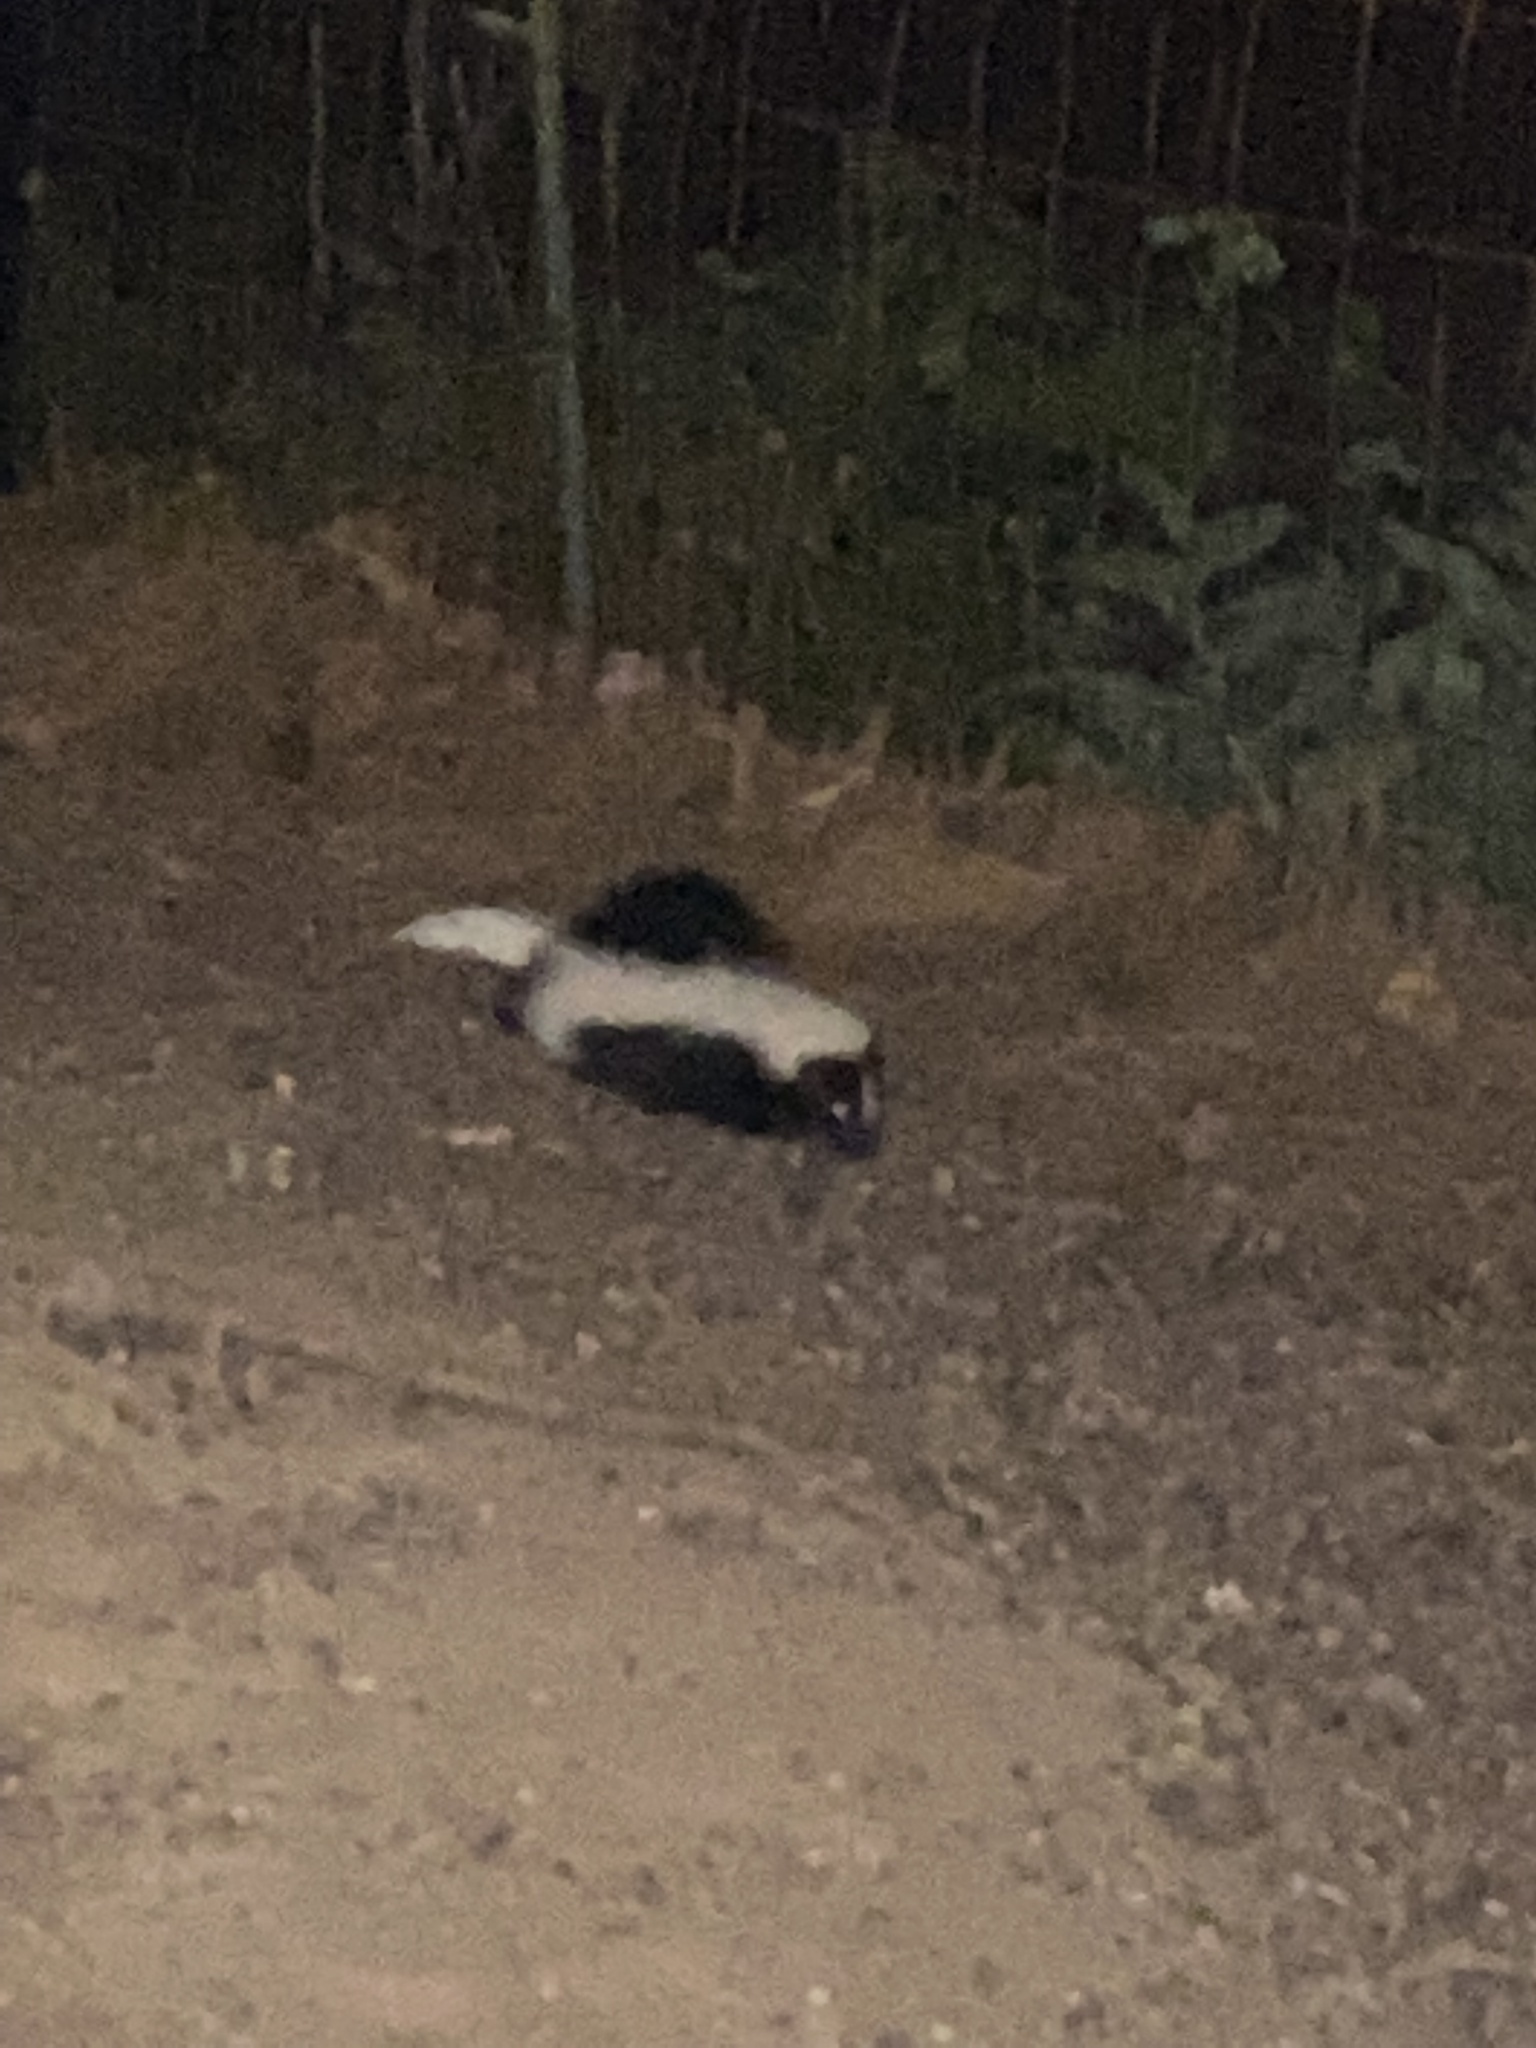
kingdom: Animalia
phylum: Chordata
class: Mammalia
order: Carnivora
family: Mephitidae
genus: Mephitis
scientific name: Mephitis mephitis
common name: Striped skunk
